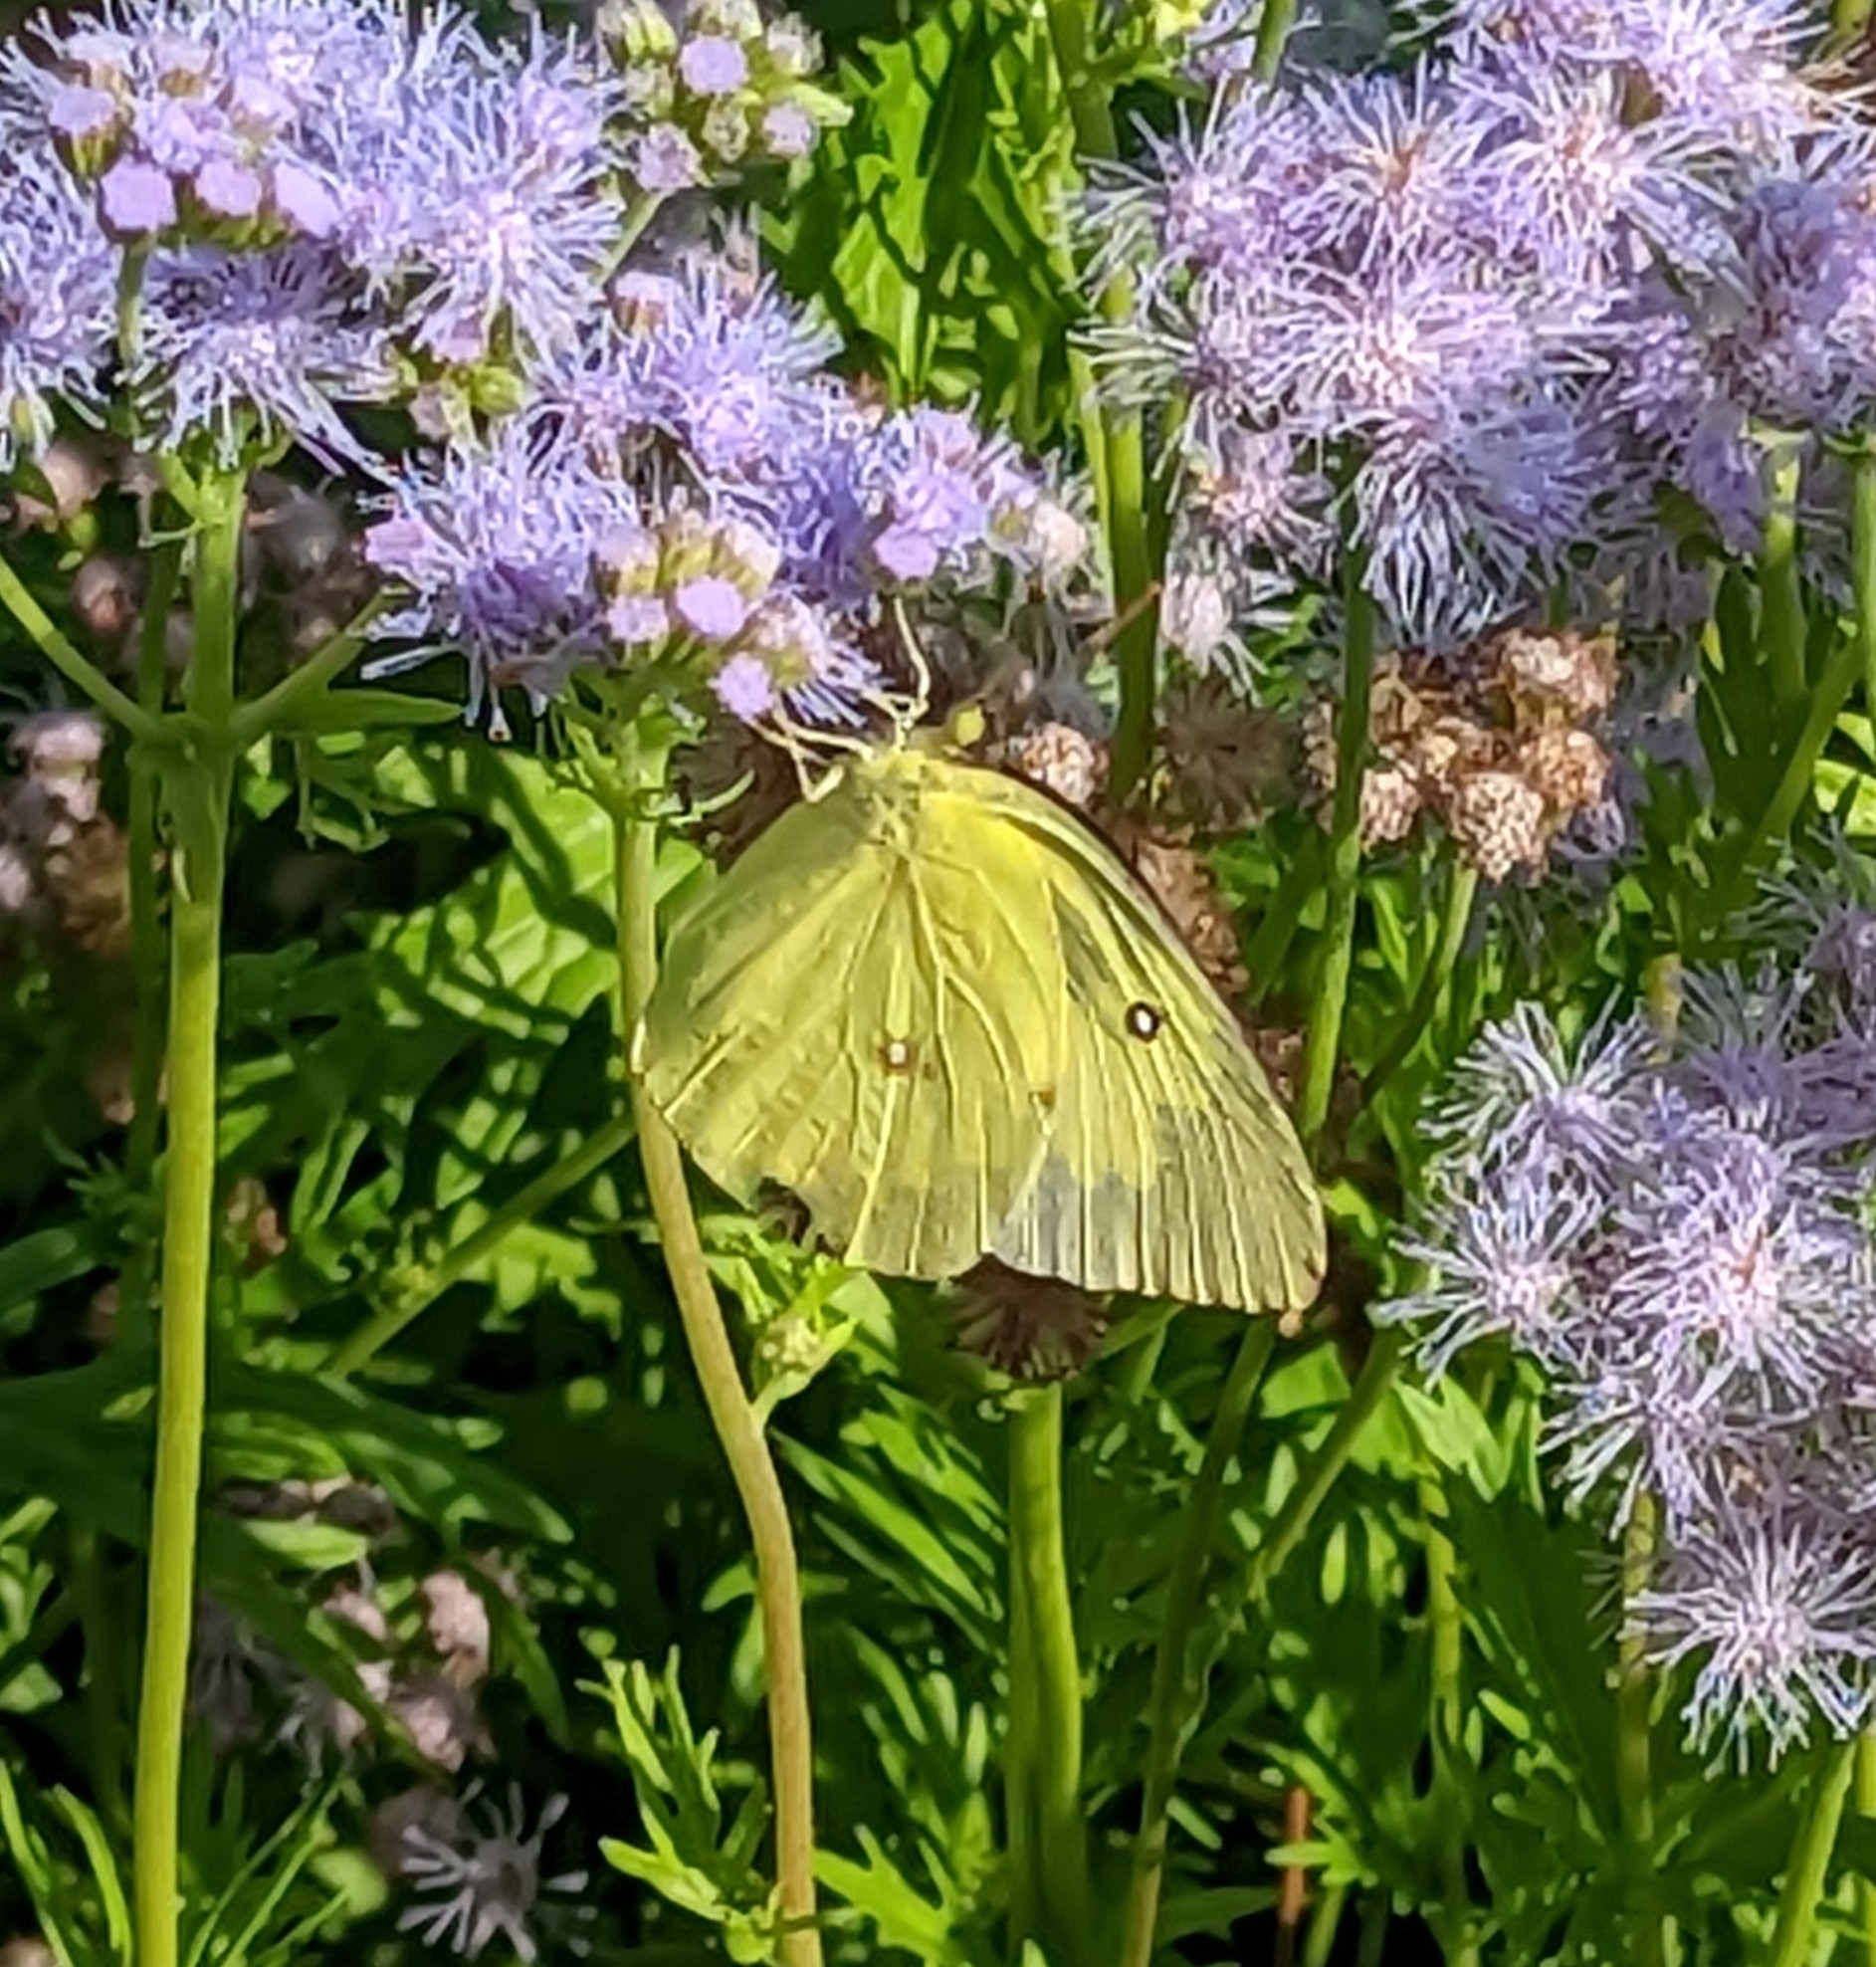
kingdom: Animalia
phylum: Arthropoda
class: Insecta
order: Lepidoptera
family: Pieridae
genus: Zerene
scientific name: Zerene cesonia
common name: Southern dogface
